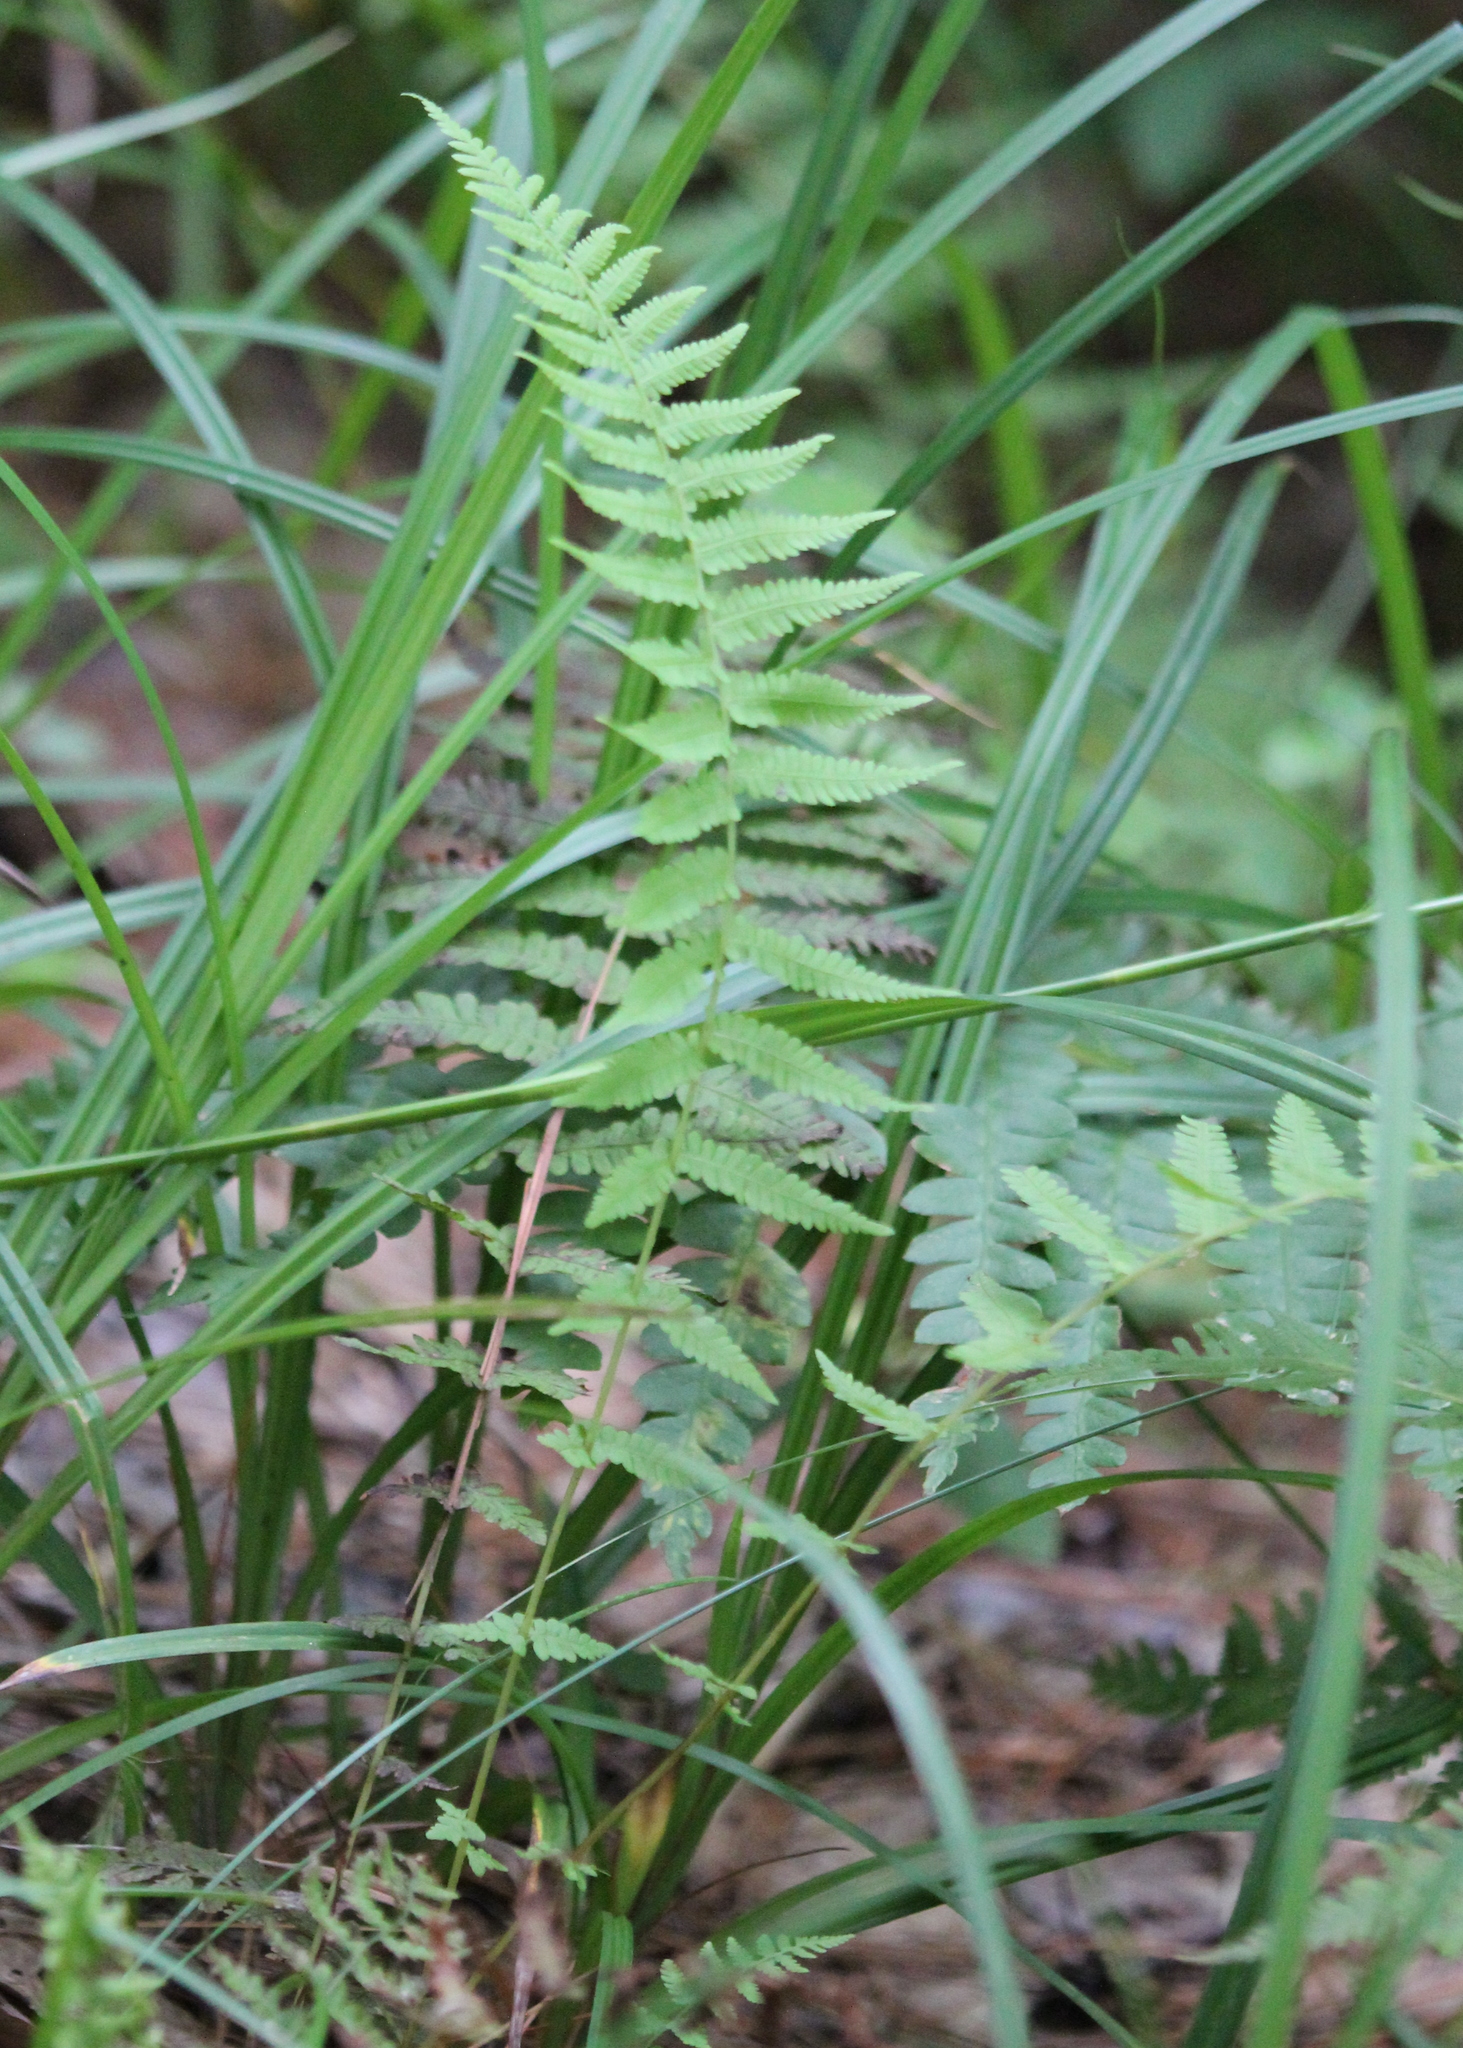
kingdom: Plantae
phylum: Tracheophyta
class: Polypodiopsida
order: Polypodiales
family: Thelypteridaceae
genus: Amauropelta
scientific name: Amauropelta noveboracensis
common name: New york fern
